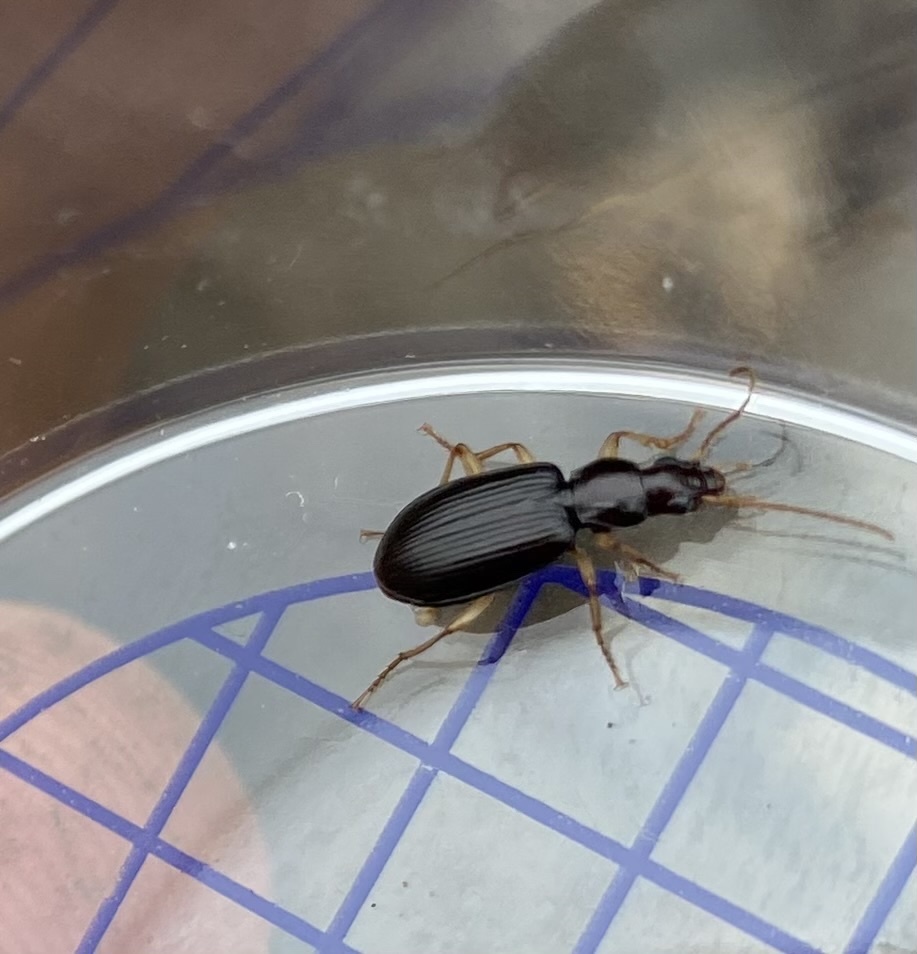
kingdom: Animalia
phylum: Arthropoda
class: Insecta
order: Coleoptera
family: Carabidae
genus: Paranchus
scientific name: Paranchus albipes
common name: White-legged harp ground beetle
